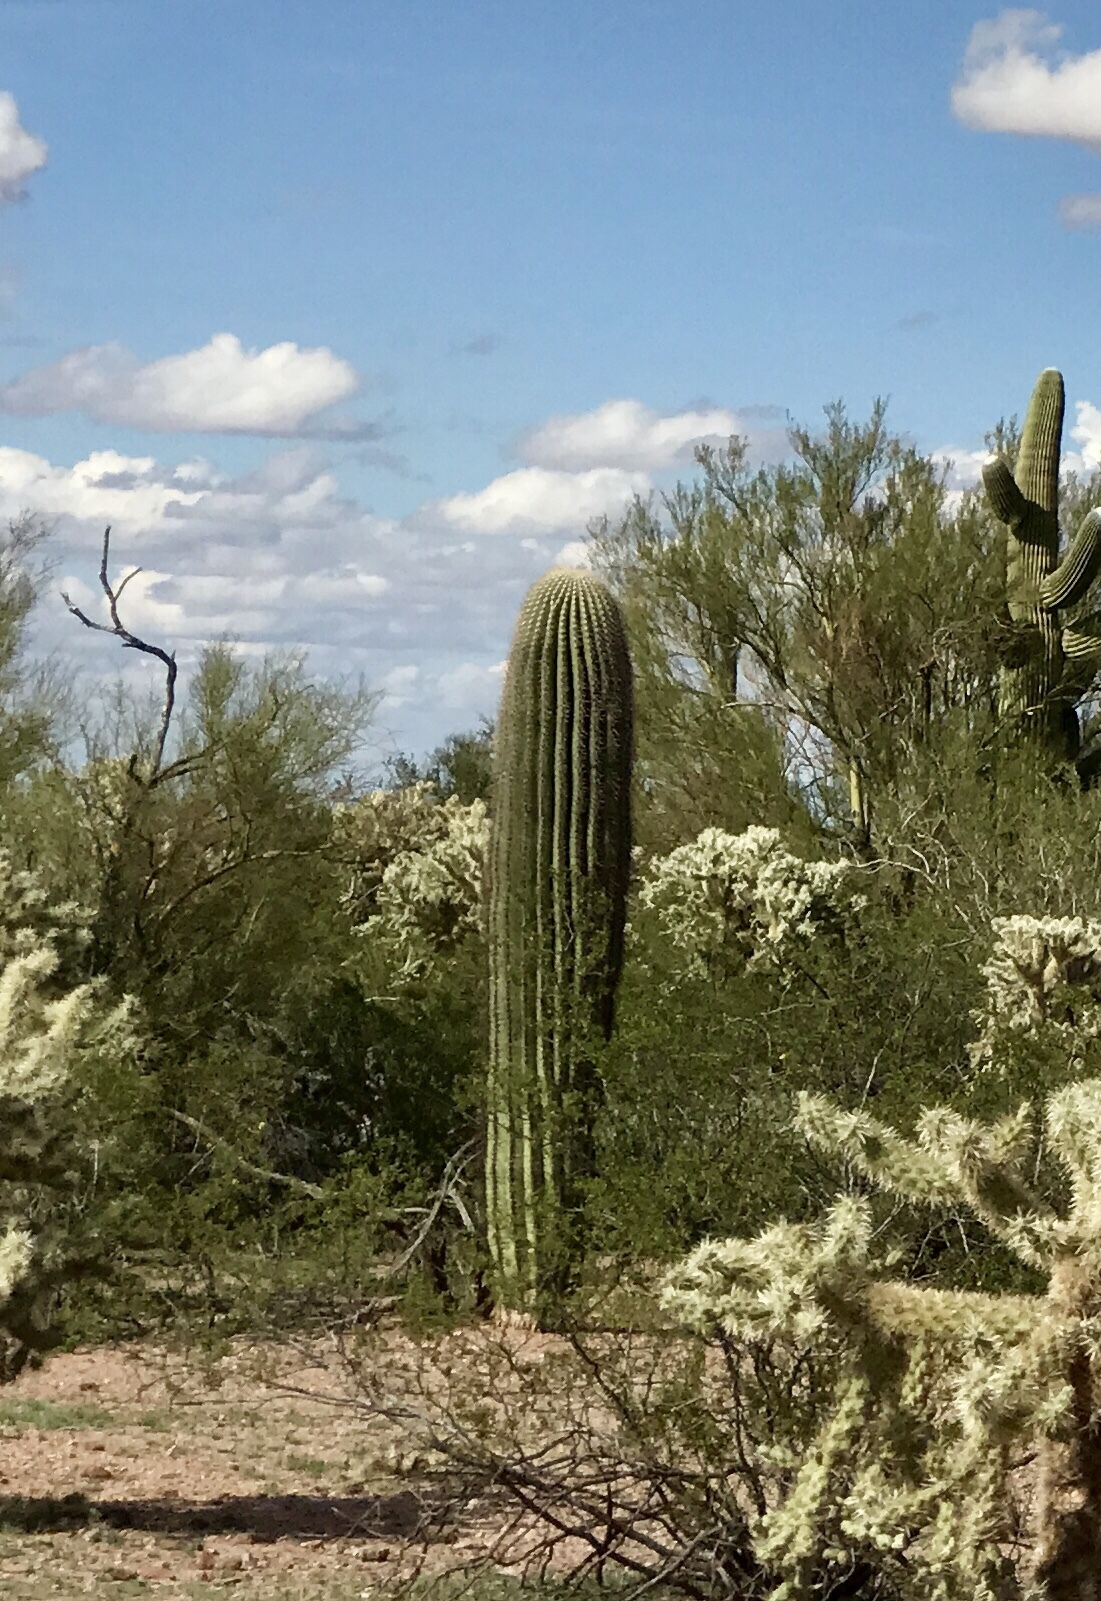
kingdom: Plantae
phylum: Tracheophyta
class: Magnoliopsida
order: Caryophyllales
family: Cactaceae
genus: Carnegiea
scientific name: Carnegiea gigantea
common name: Saguaro
